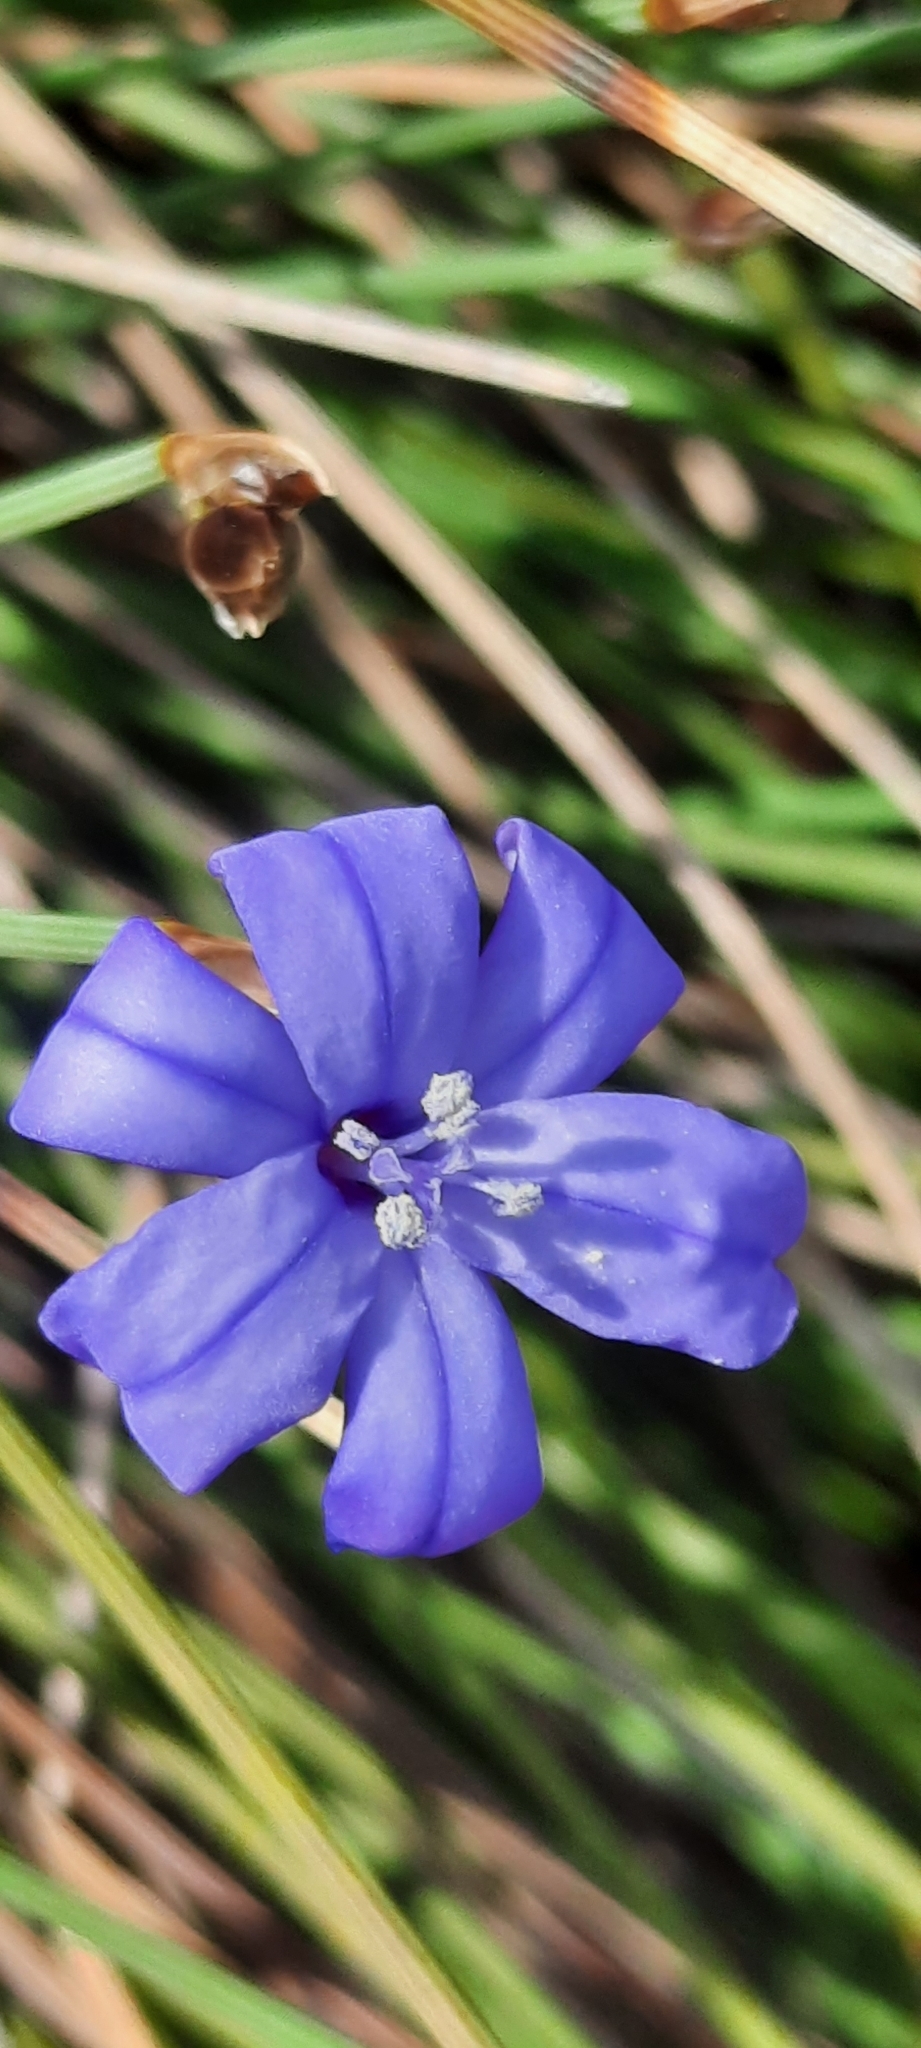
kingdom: Plantae
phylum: Tracheophyta
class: Liliopsida
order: Asparagales
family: Asparagaceae
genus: Aphyllanthes
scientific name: Aphyllanthes monspeliensis
